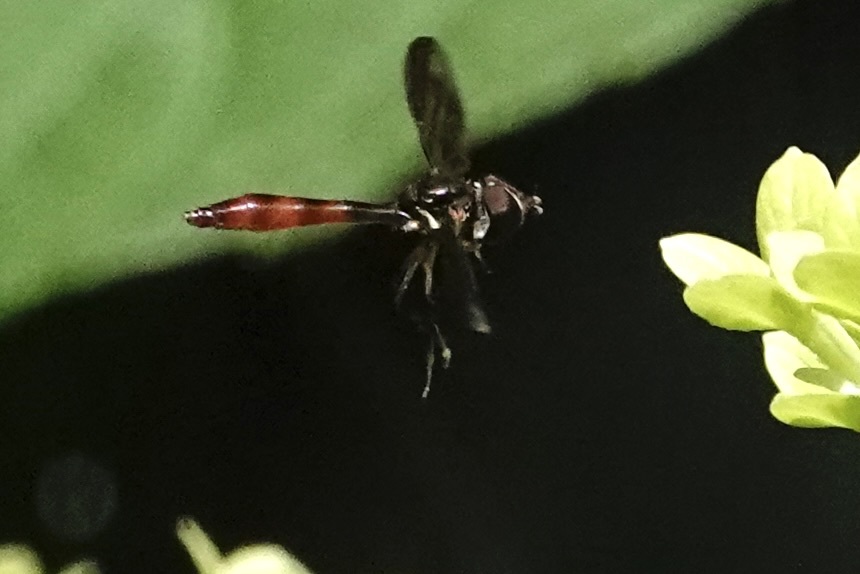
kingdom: Animalia
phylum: Arthropoda
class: Insecta
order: Diptera
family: Syrphidae
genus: Ocyptamus
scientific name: Ocyptamus fuscipennis
